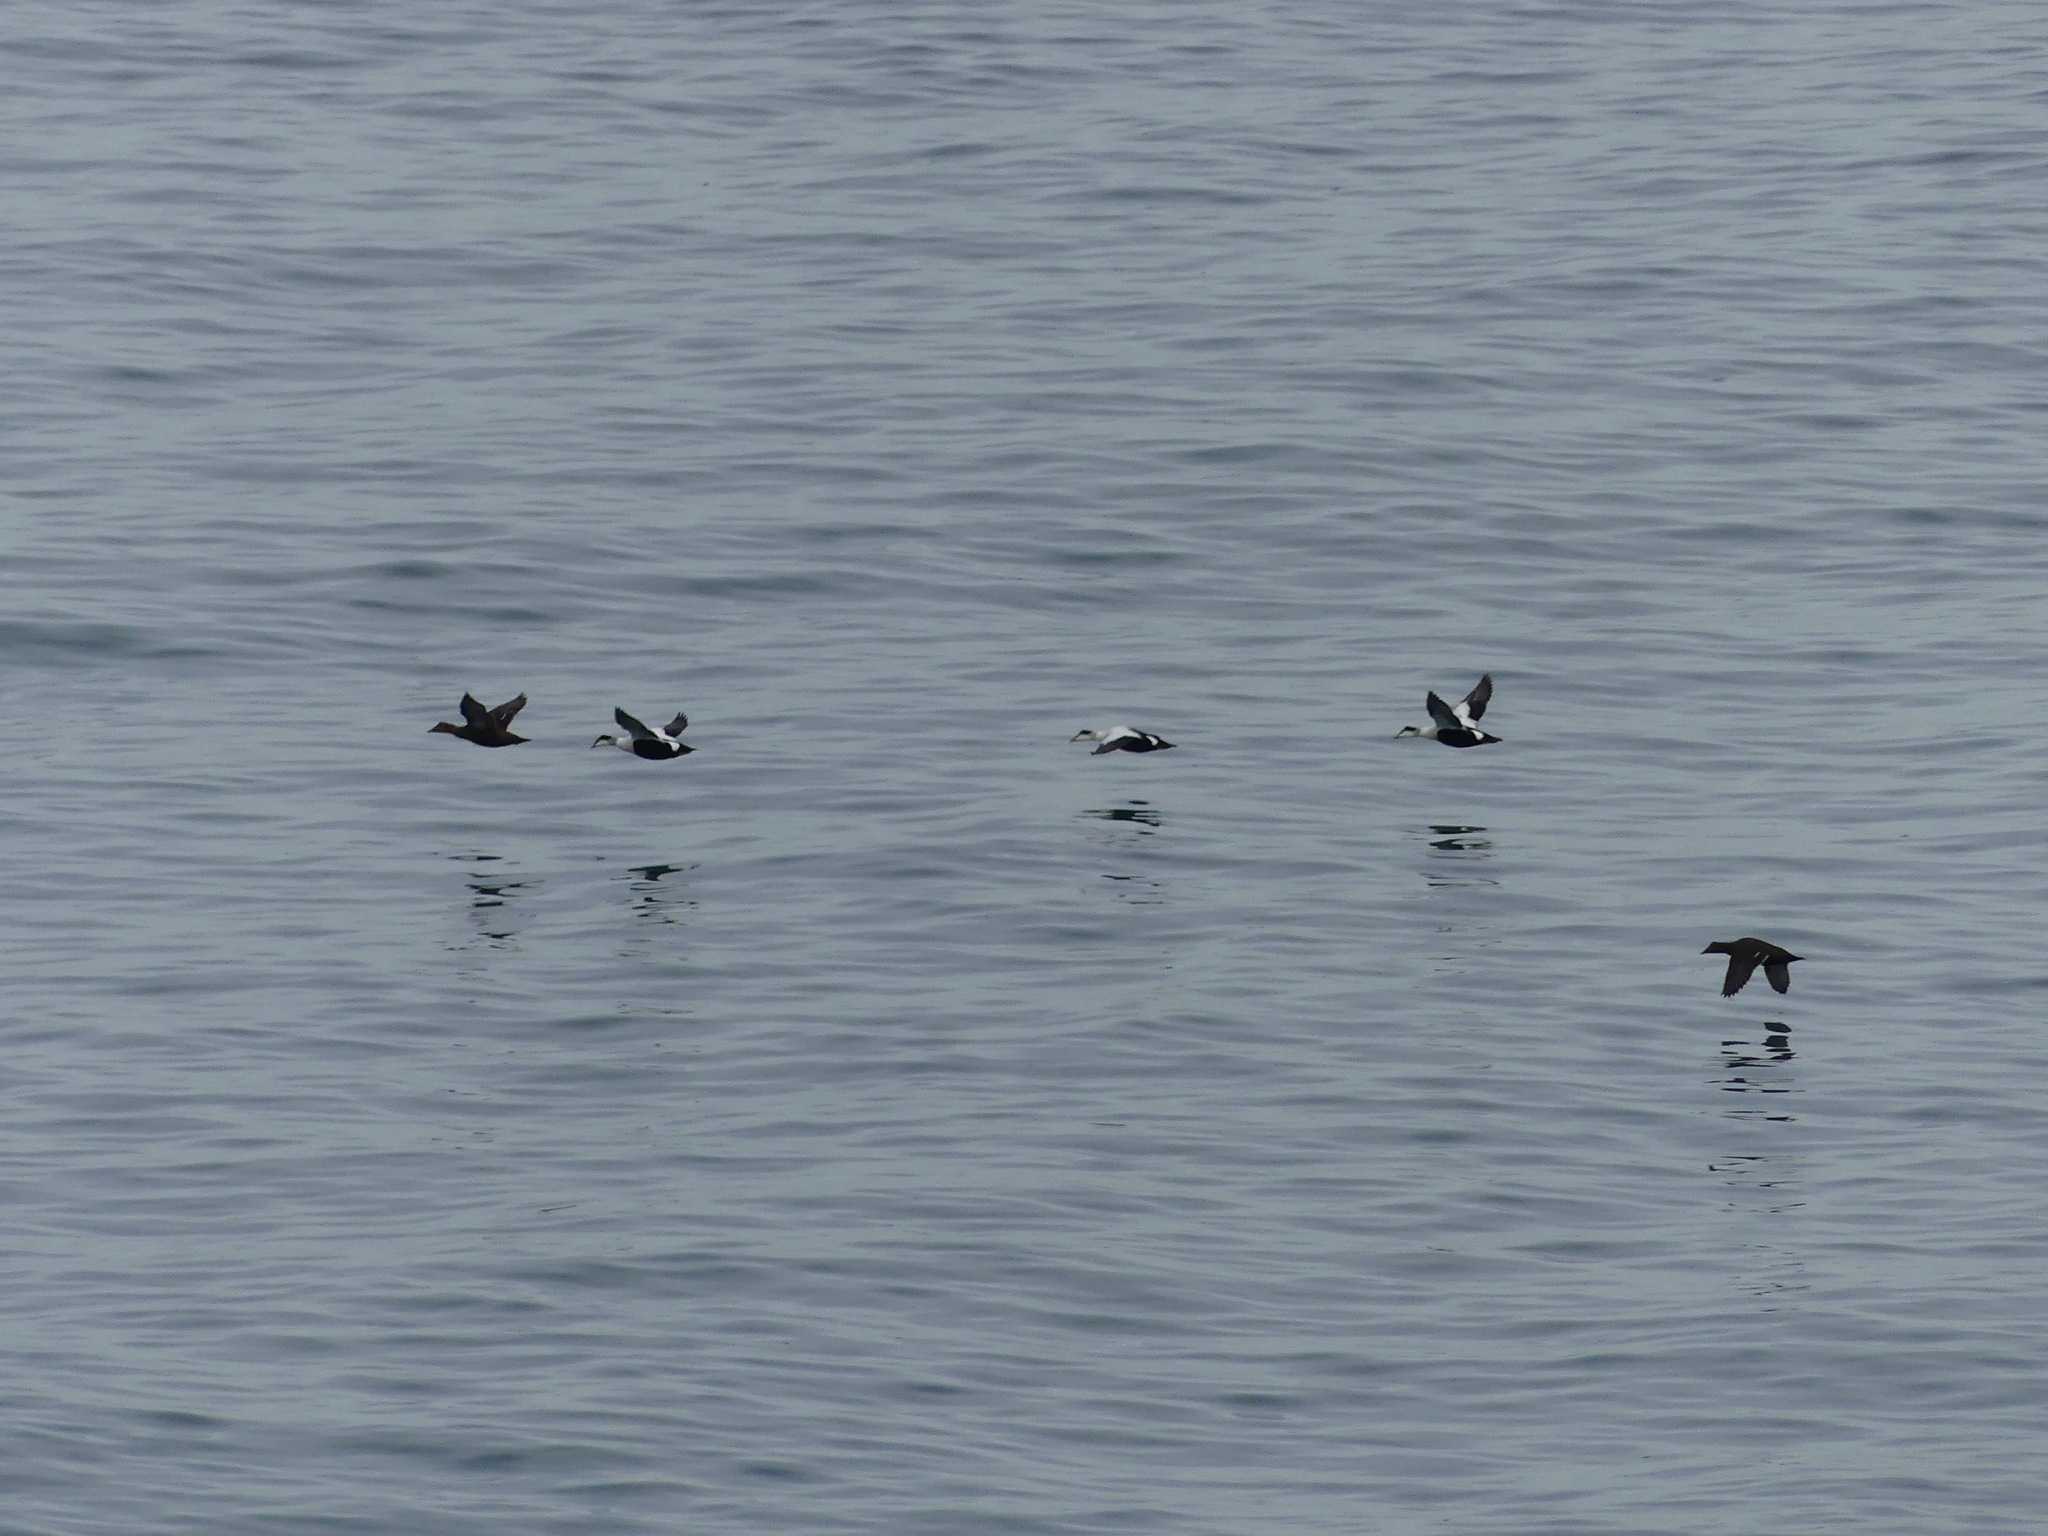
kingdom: Animalia
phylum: Chordata
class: Aves
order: Anseriformes
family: Anatidae
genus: Somateria
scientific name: Somateria mollissima
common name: Common eider
